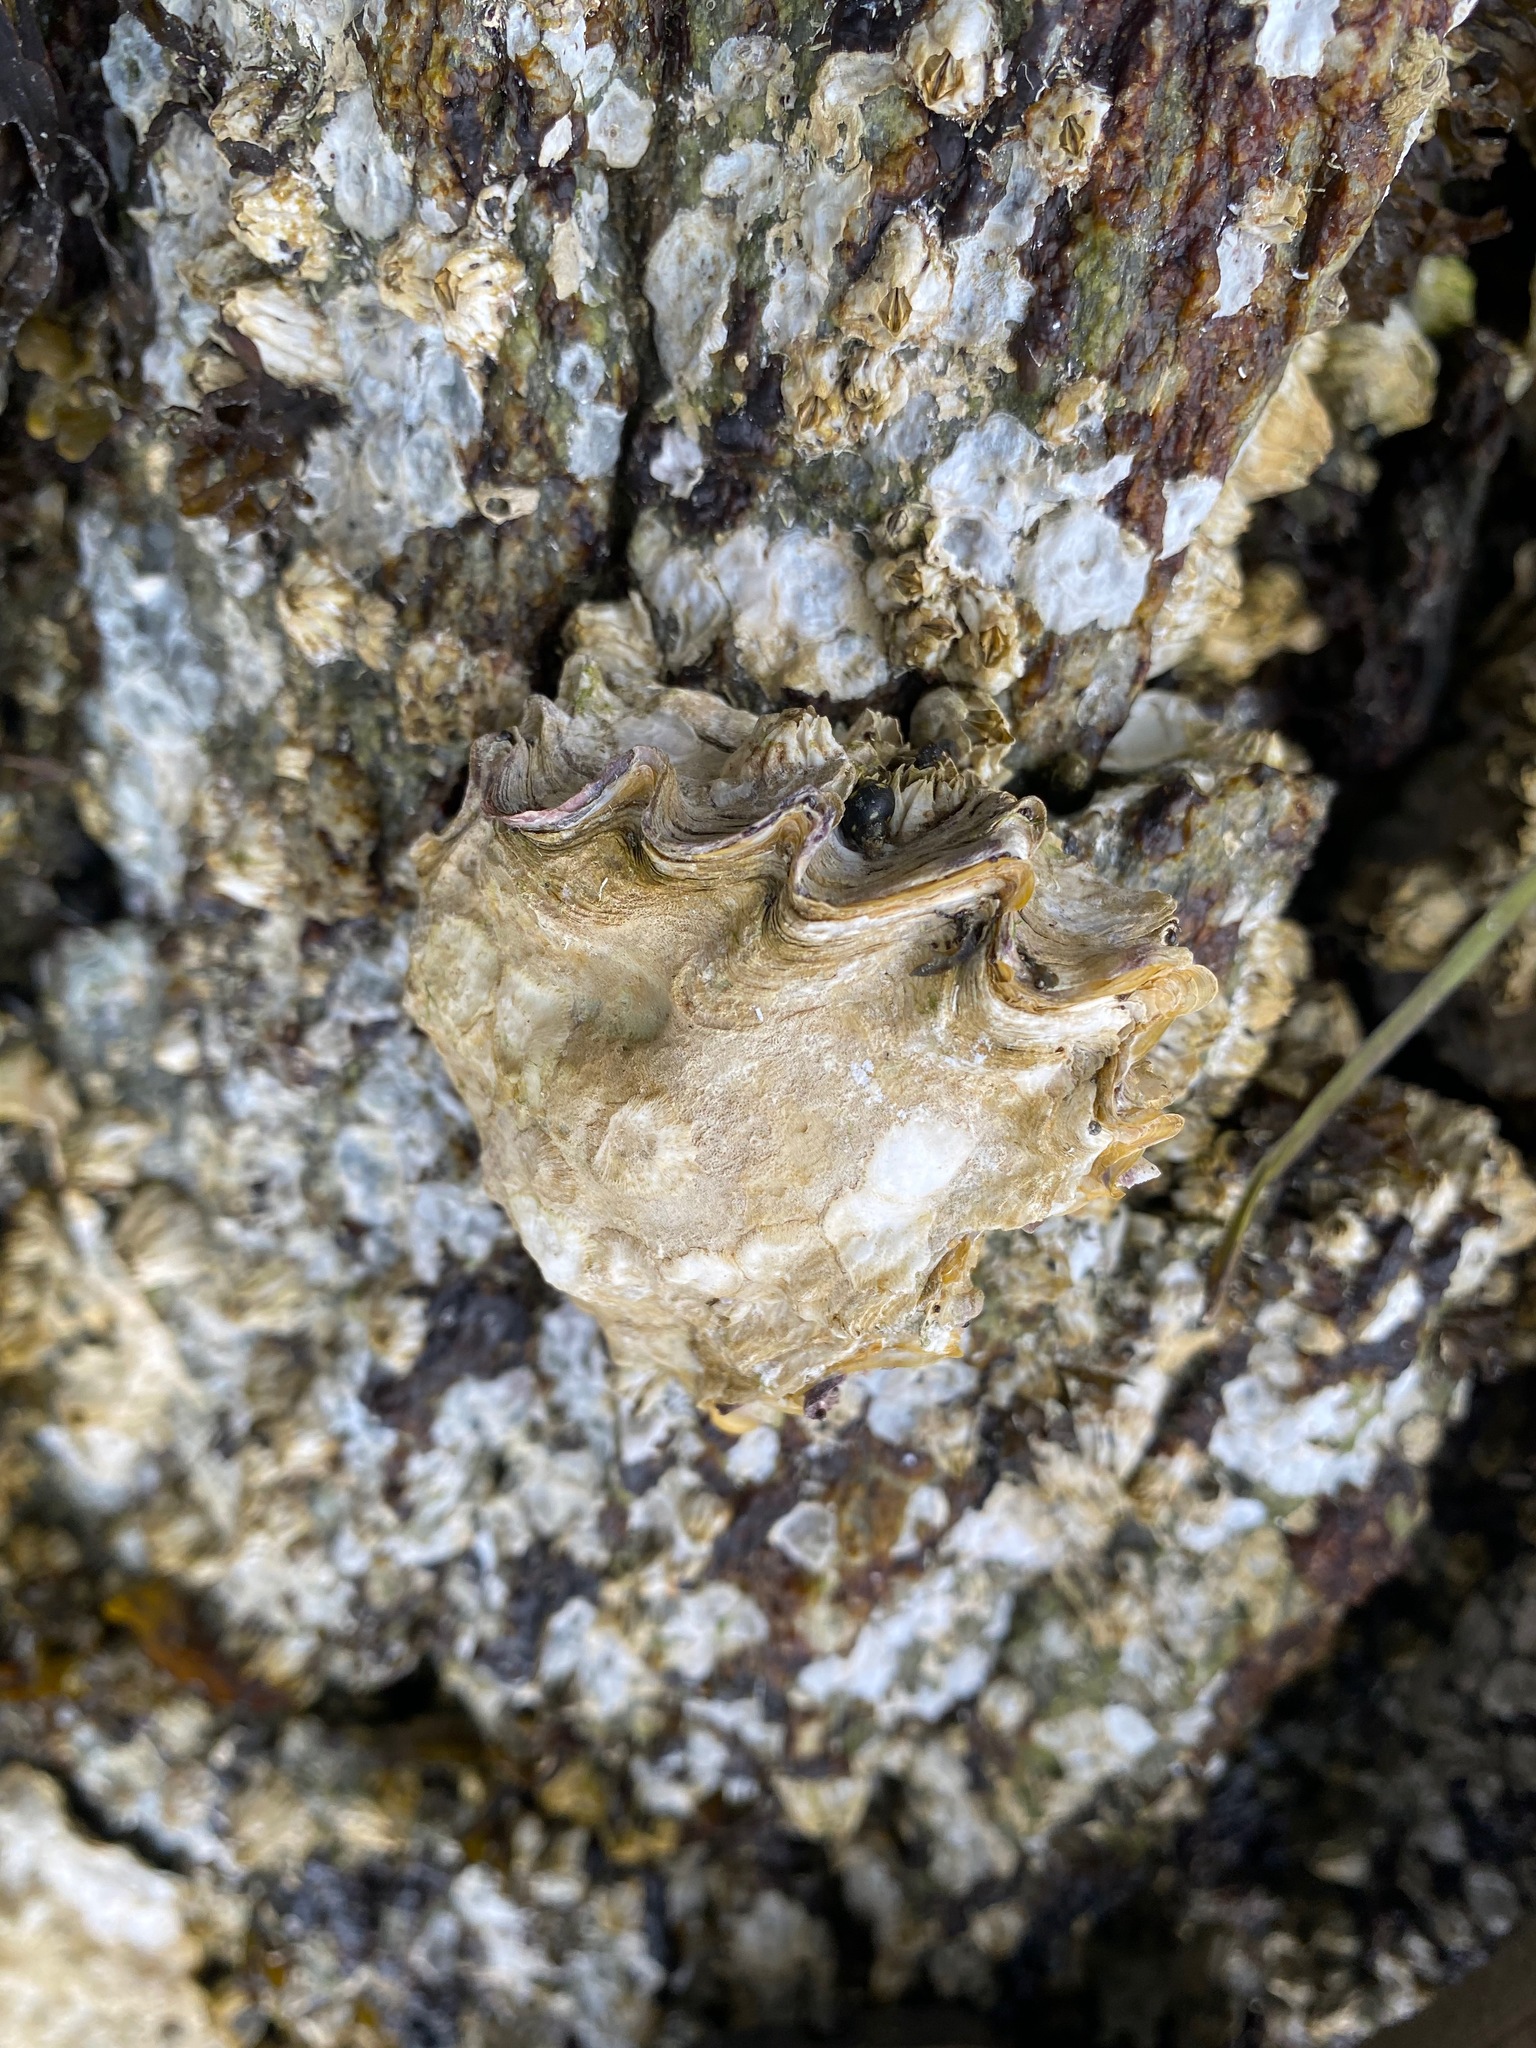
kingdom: Animalia
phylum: Mollusca
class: Bivalvia
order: Ostreida
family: Ostreidae
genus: Magallana
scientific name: Magallana gigas
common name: Pacific oyster
